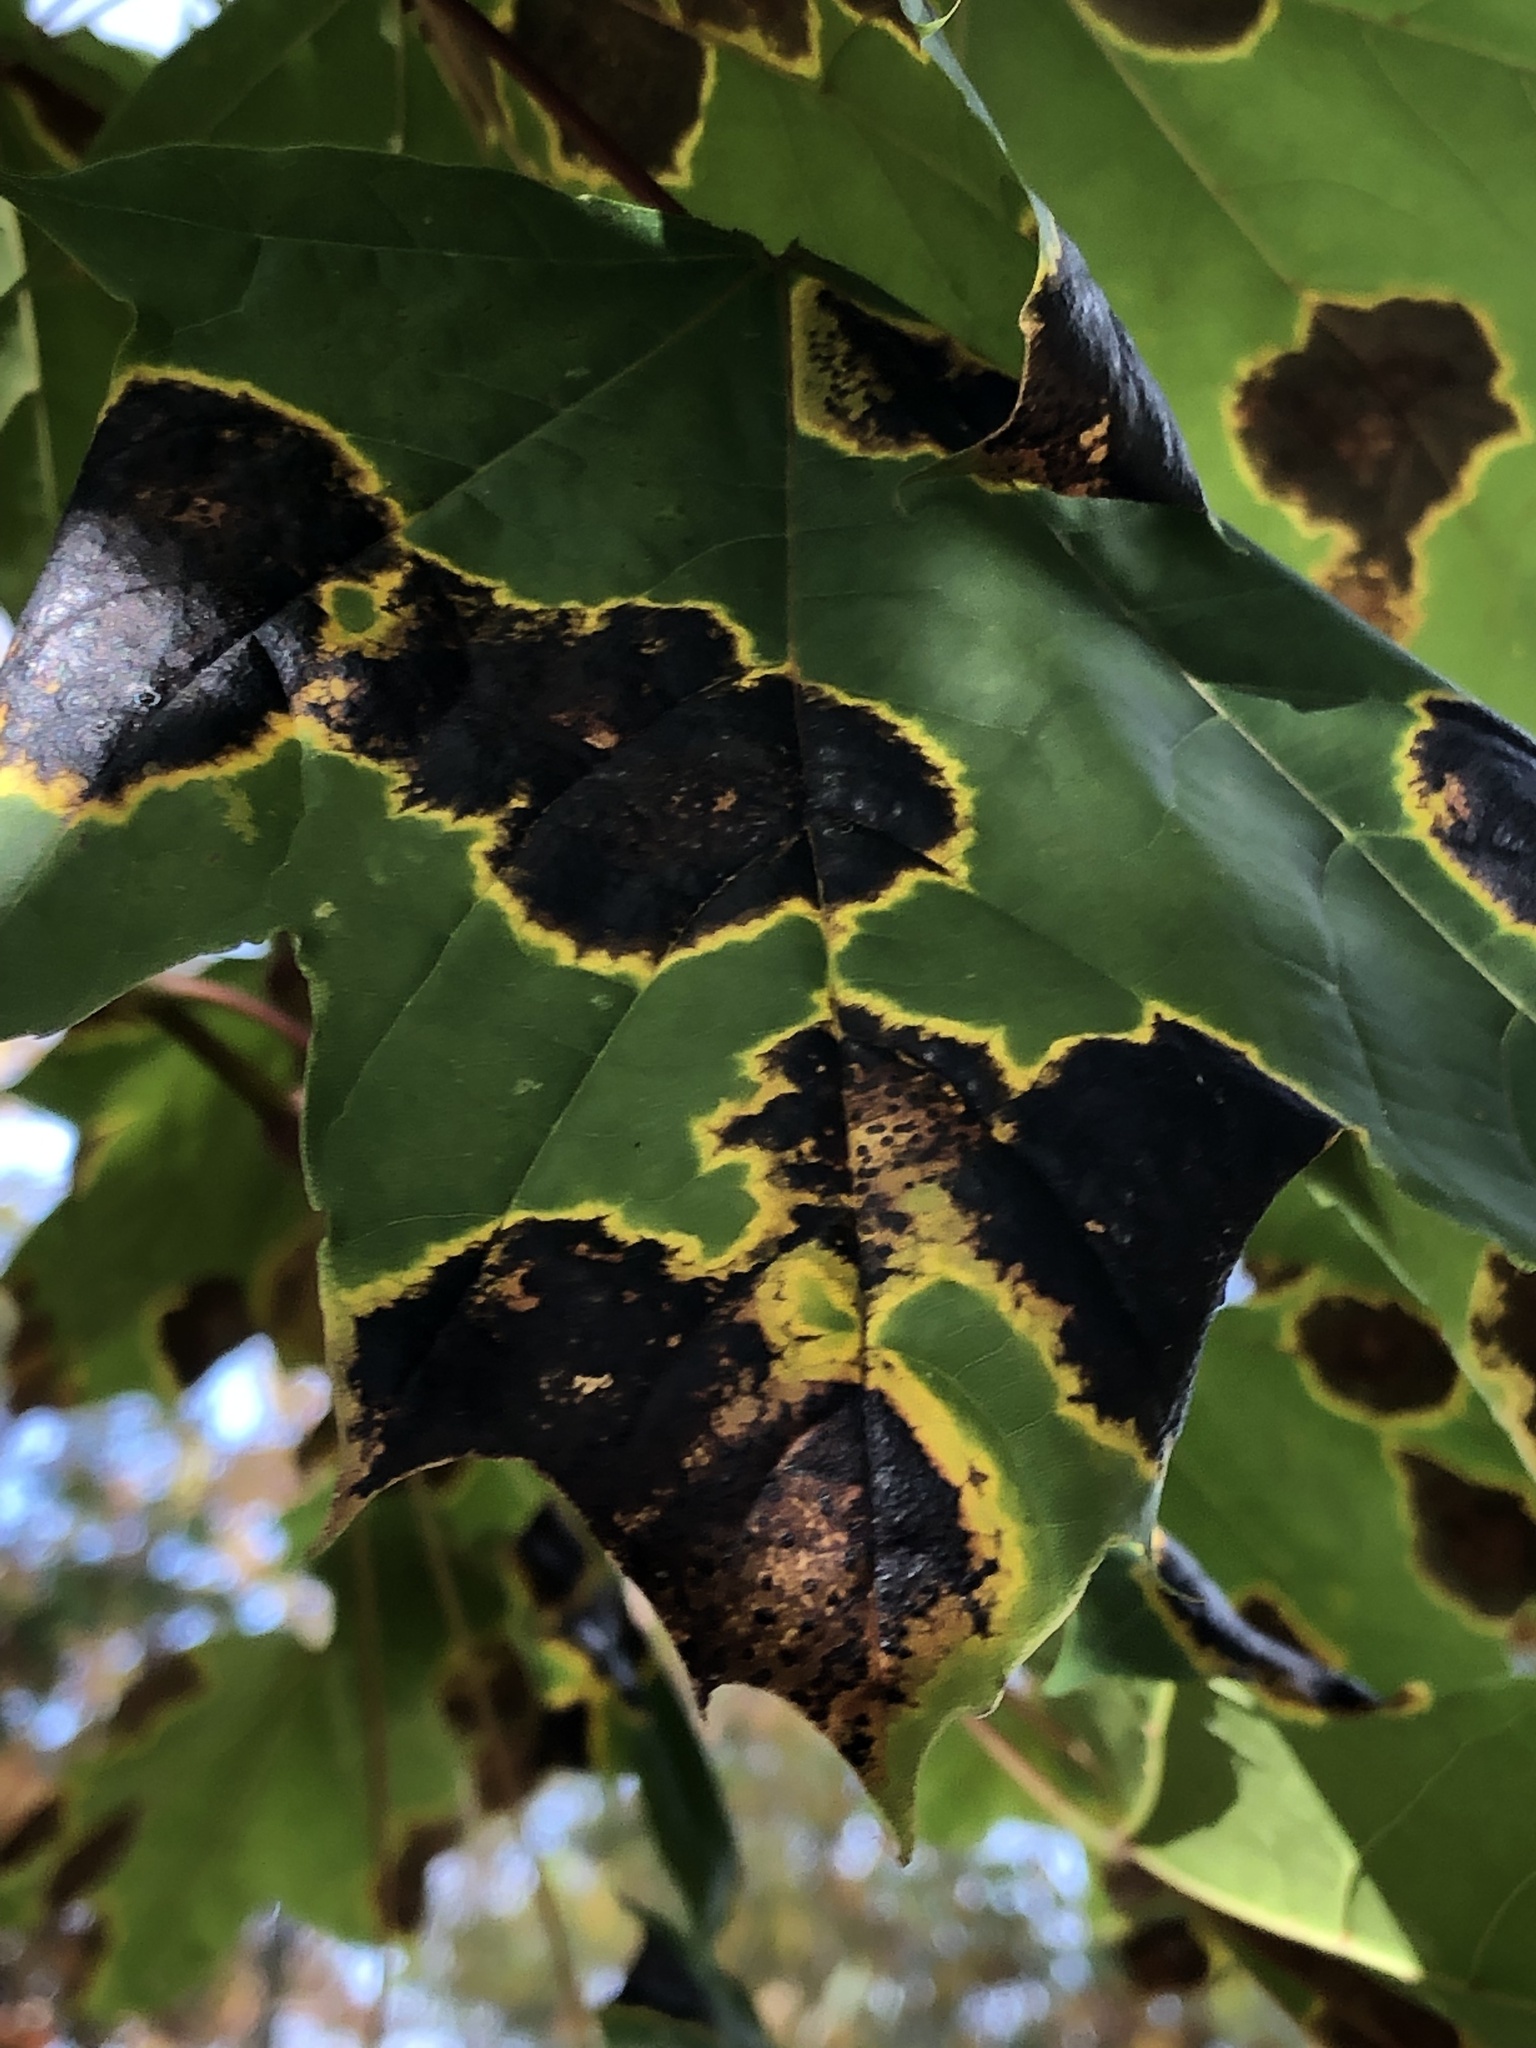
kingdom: Fungi
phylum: Ascomycota
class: Leotiomycetes
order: Rhytismatales
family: Rhytismataceae
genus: Rhytisma
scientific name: Rhytisma acerinum
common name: European tar spot
